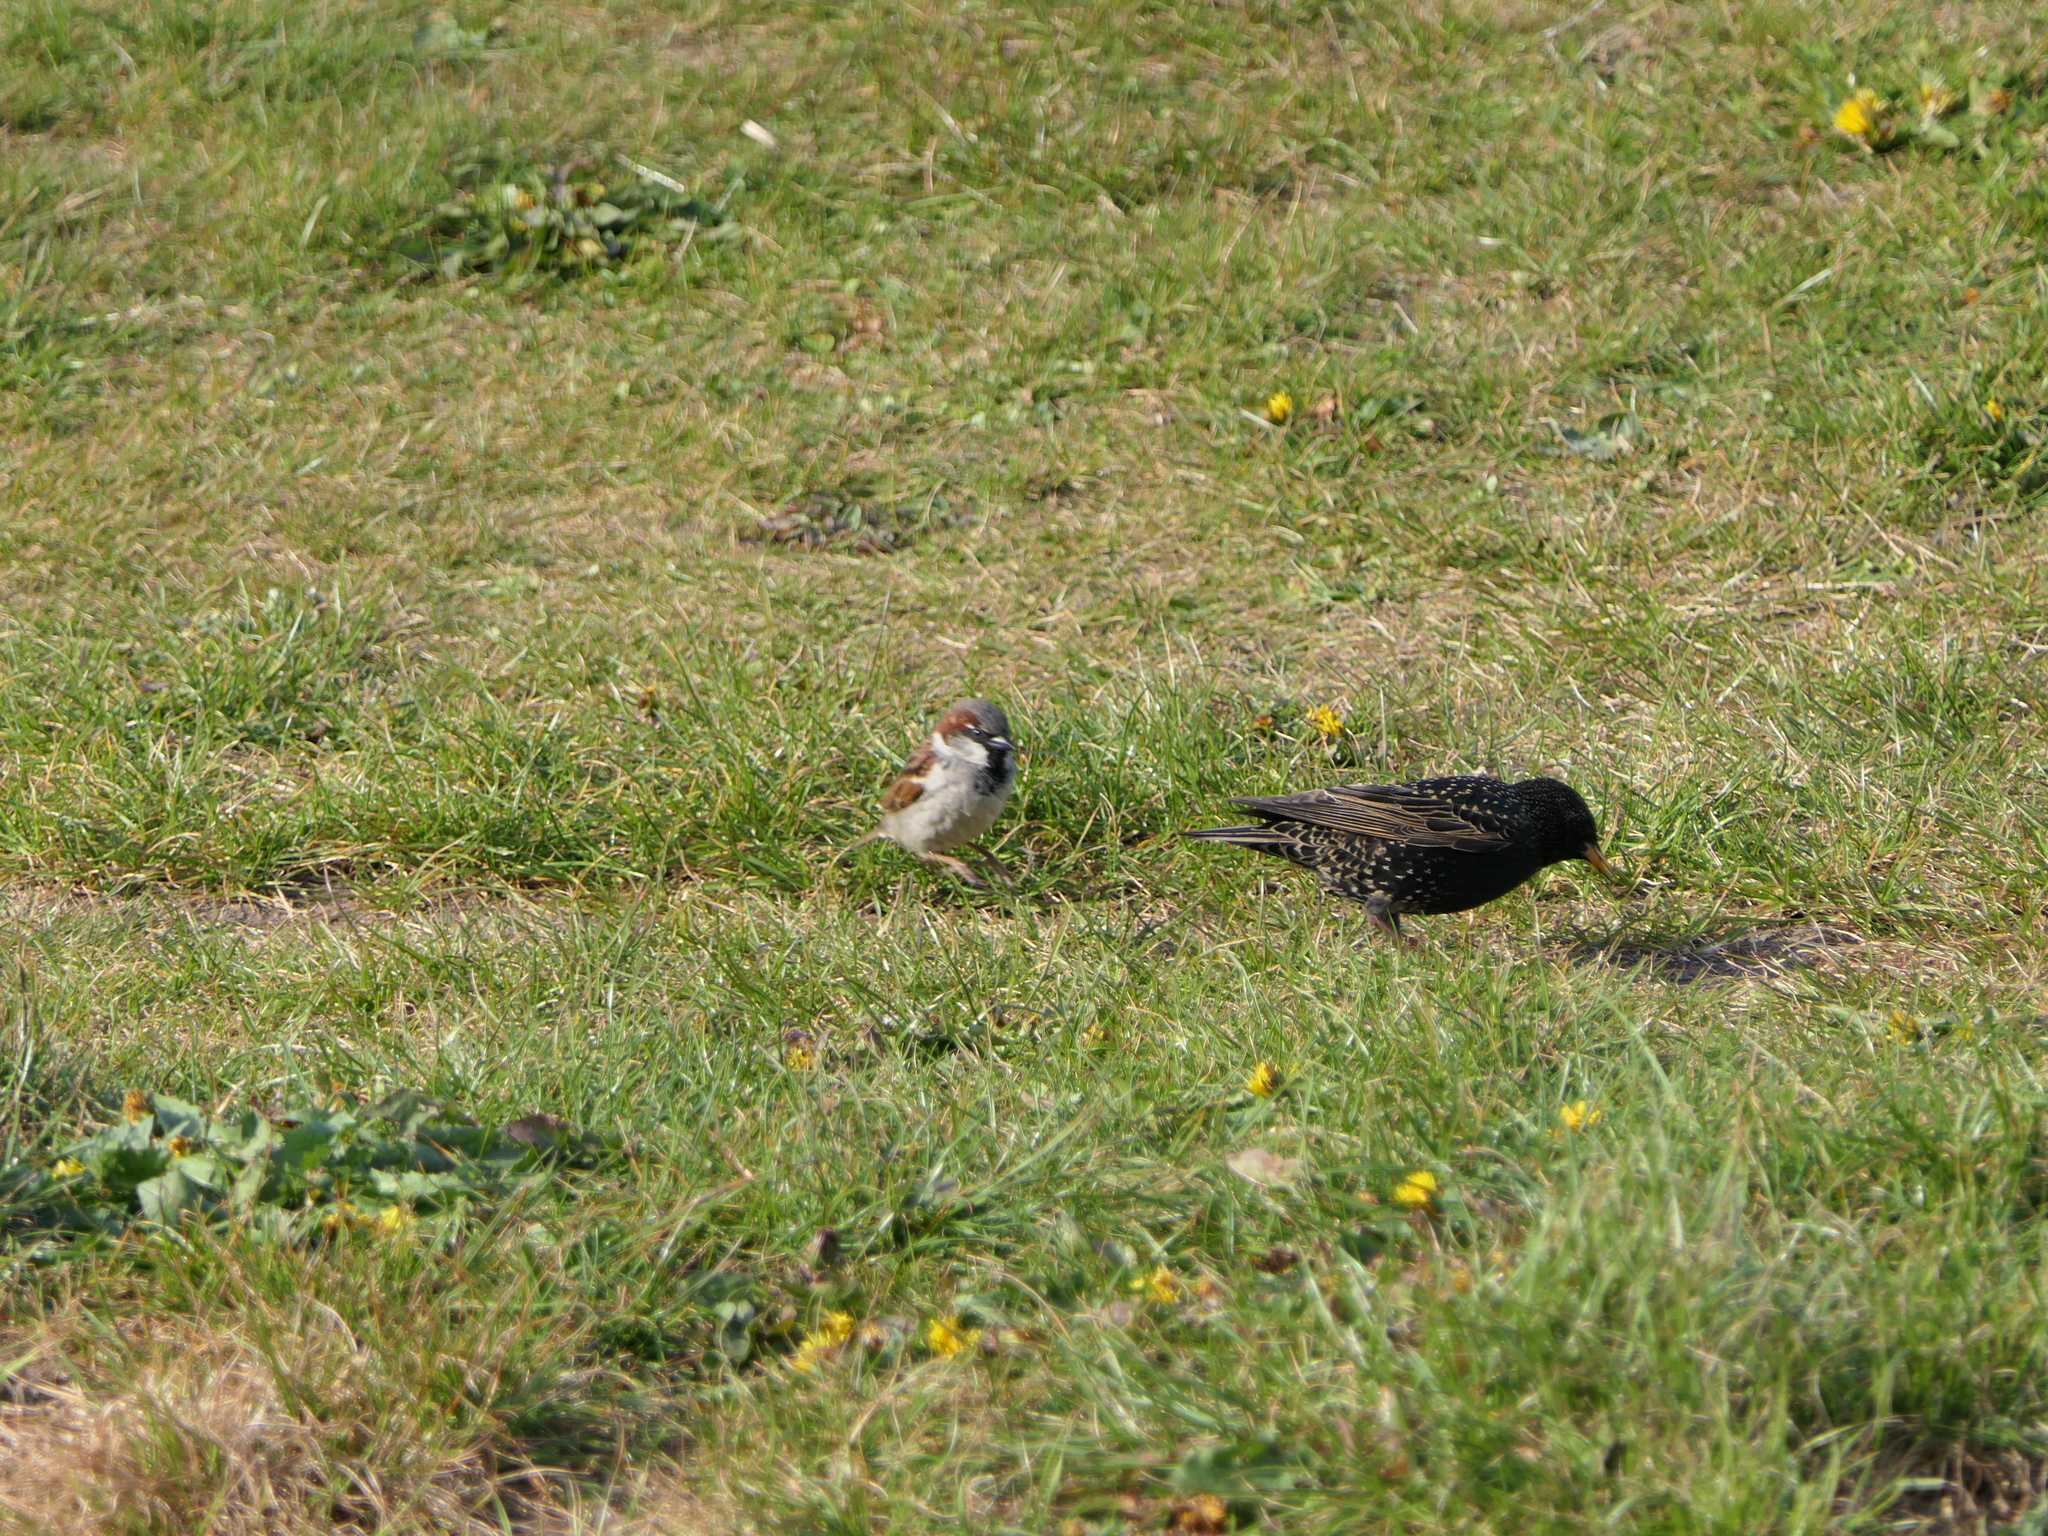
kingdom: Animalia
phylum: Chordata
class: Aves
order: Passeriformes
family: Passeridae
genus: Passer
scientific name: Passer domesticus
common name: House sparrow
